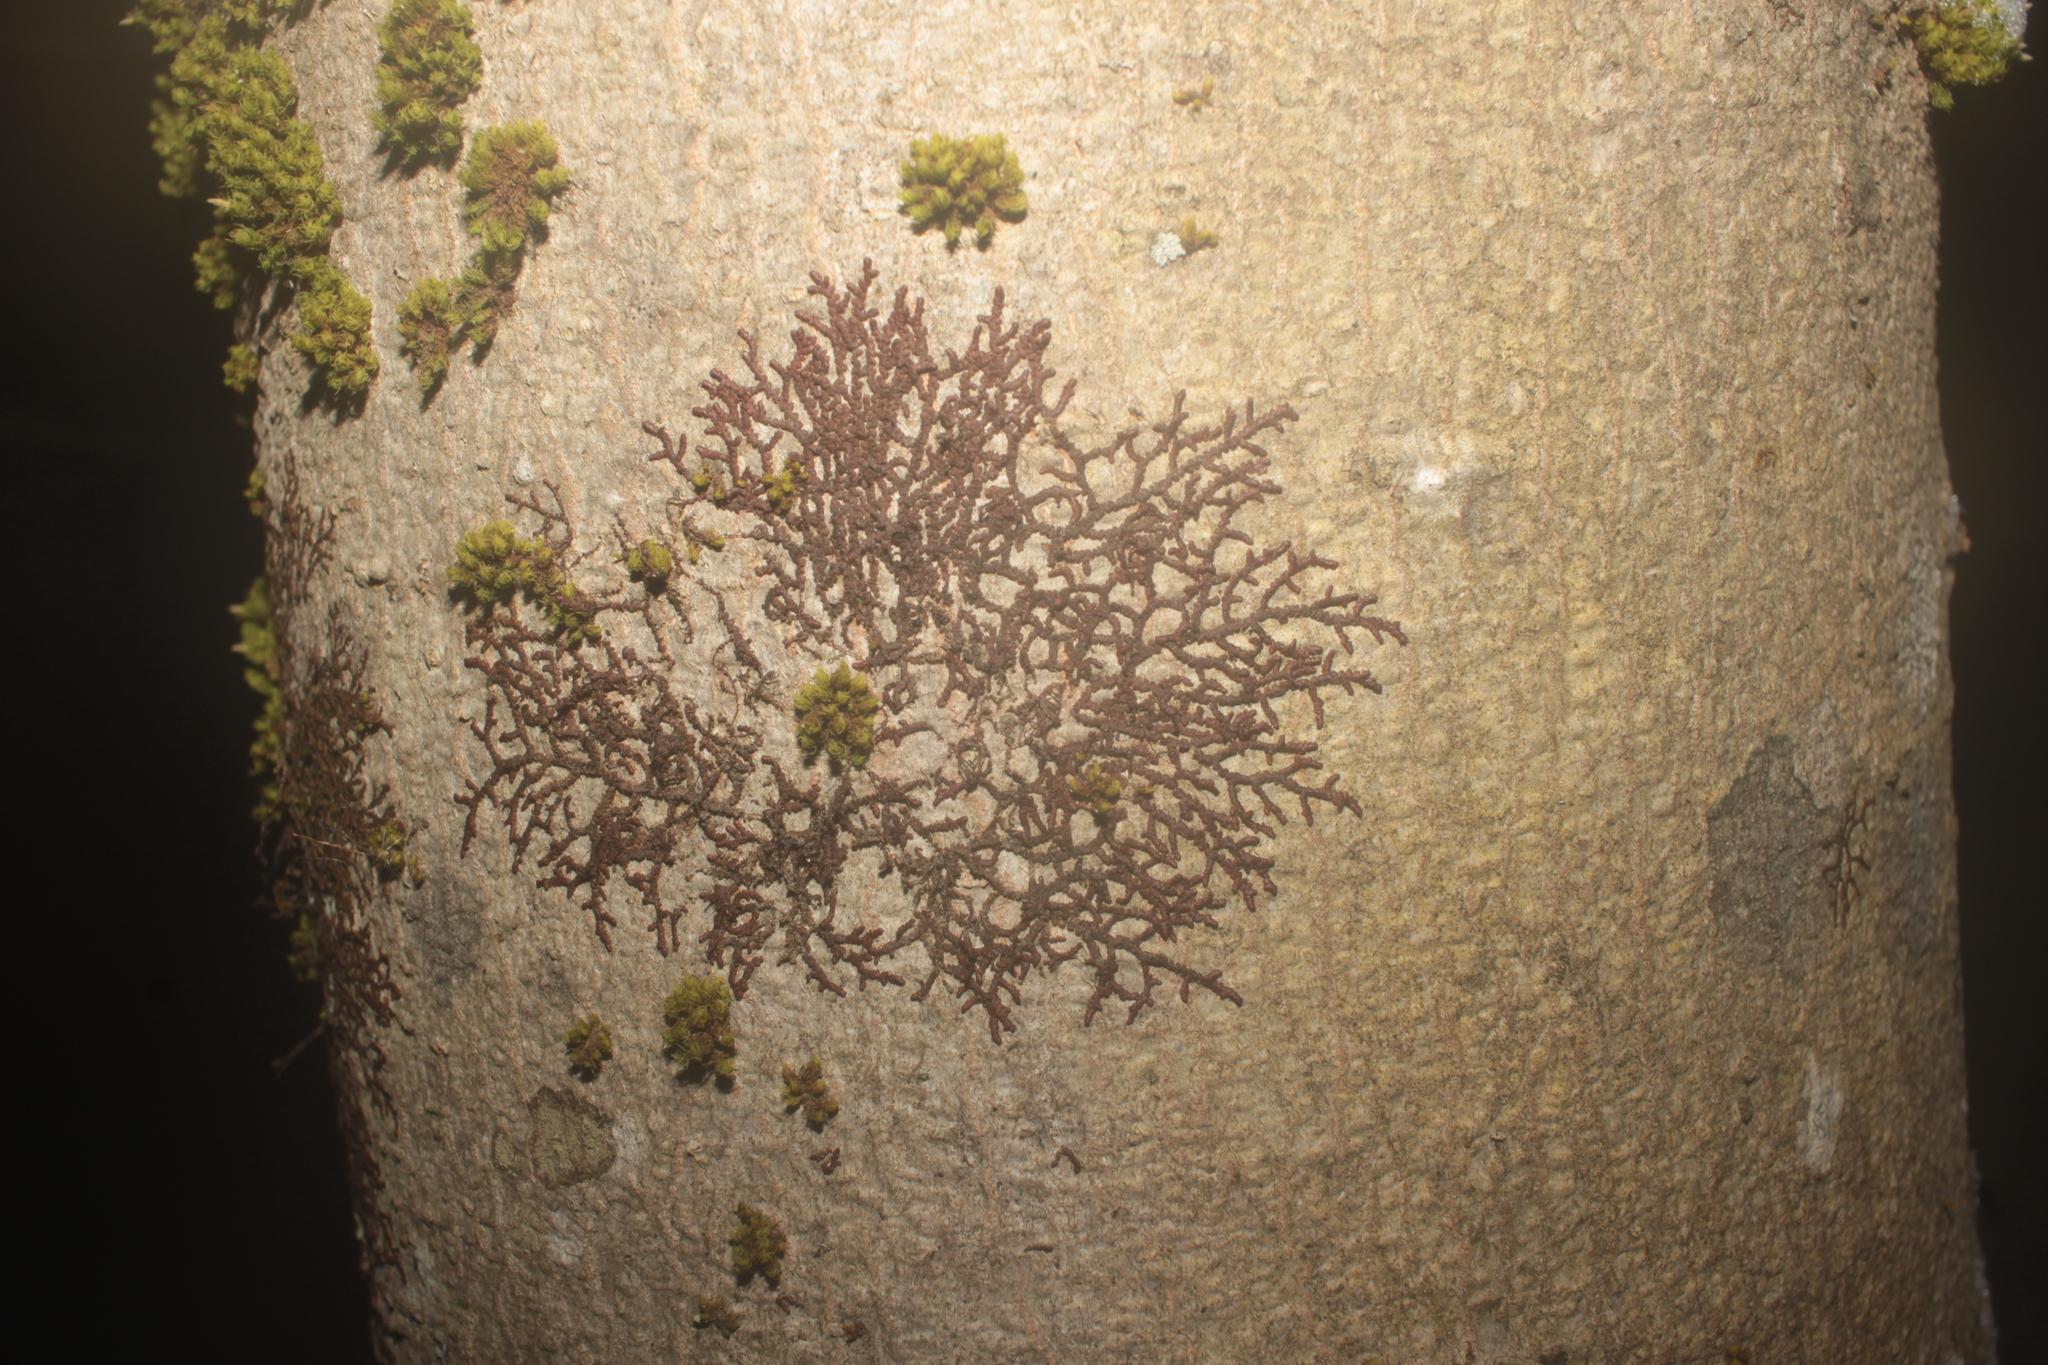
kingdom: Plantae
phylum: Tracheophyta
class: Magnoliopsida
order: Fagales
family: Fagaceae
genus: Fagus
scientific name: Fagus grandifolia
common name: American beech
